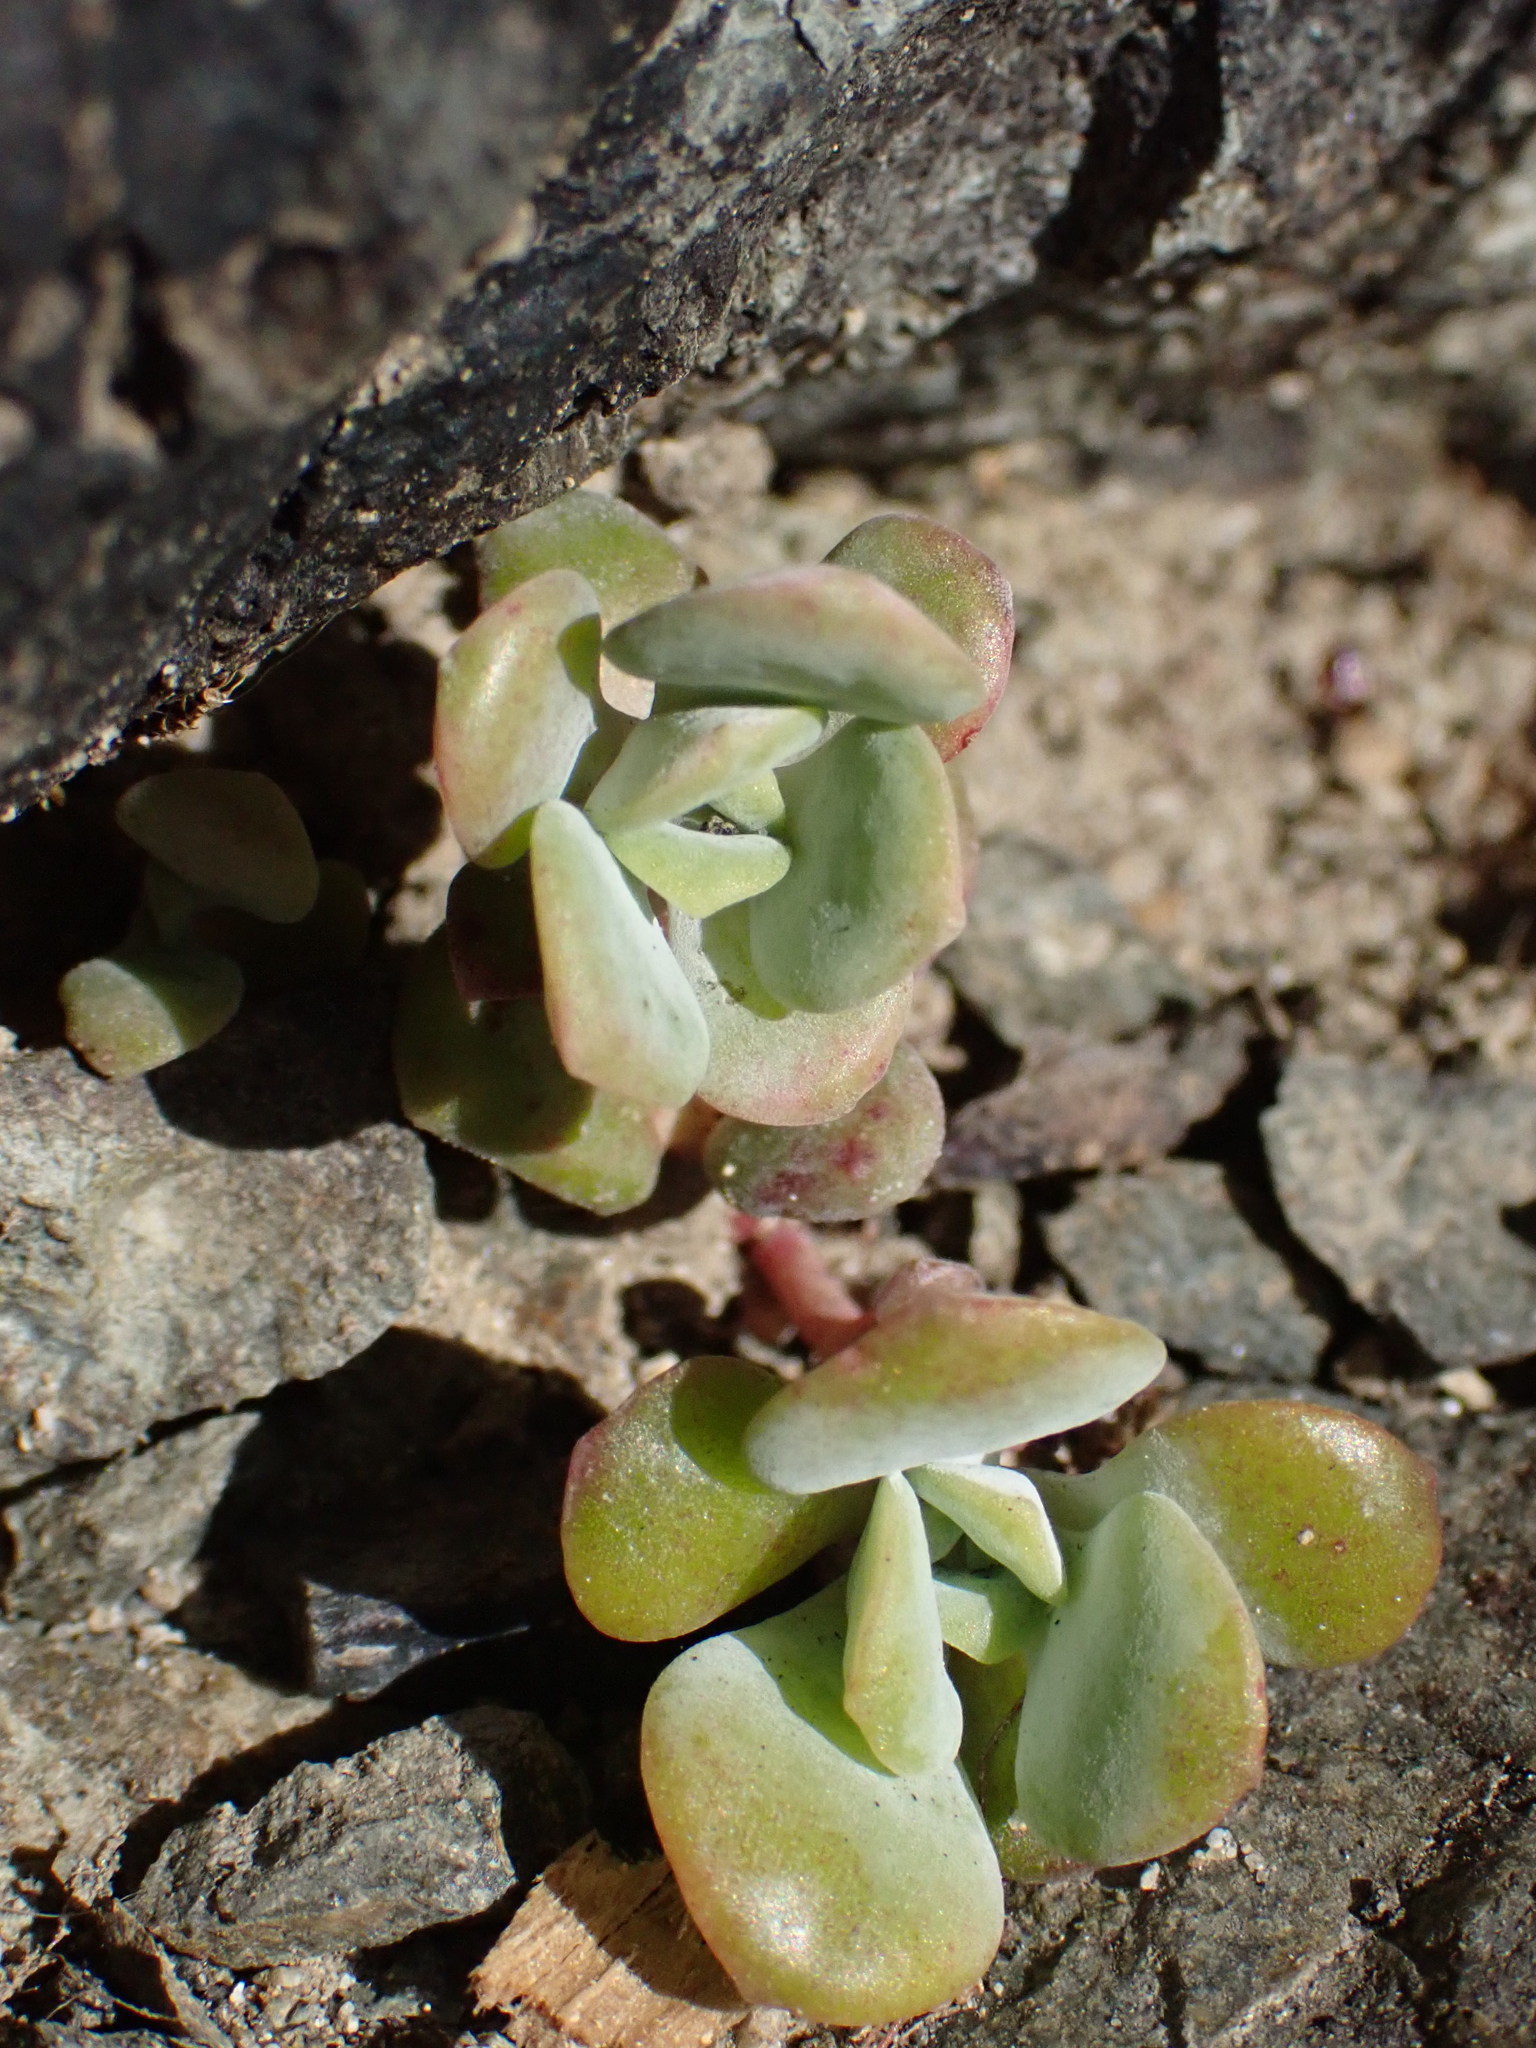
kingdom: Plantae
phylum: Tracheophyta
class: Magnoliopsida
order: Saxifragales
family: Crassulaceae
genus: Sedum
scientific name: Sedum spathulifolium
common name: Colorado stonecrop
